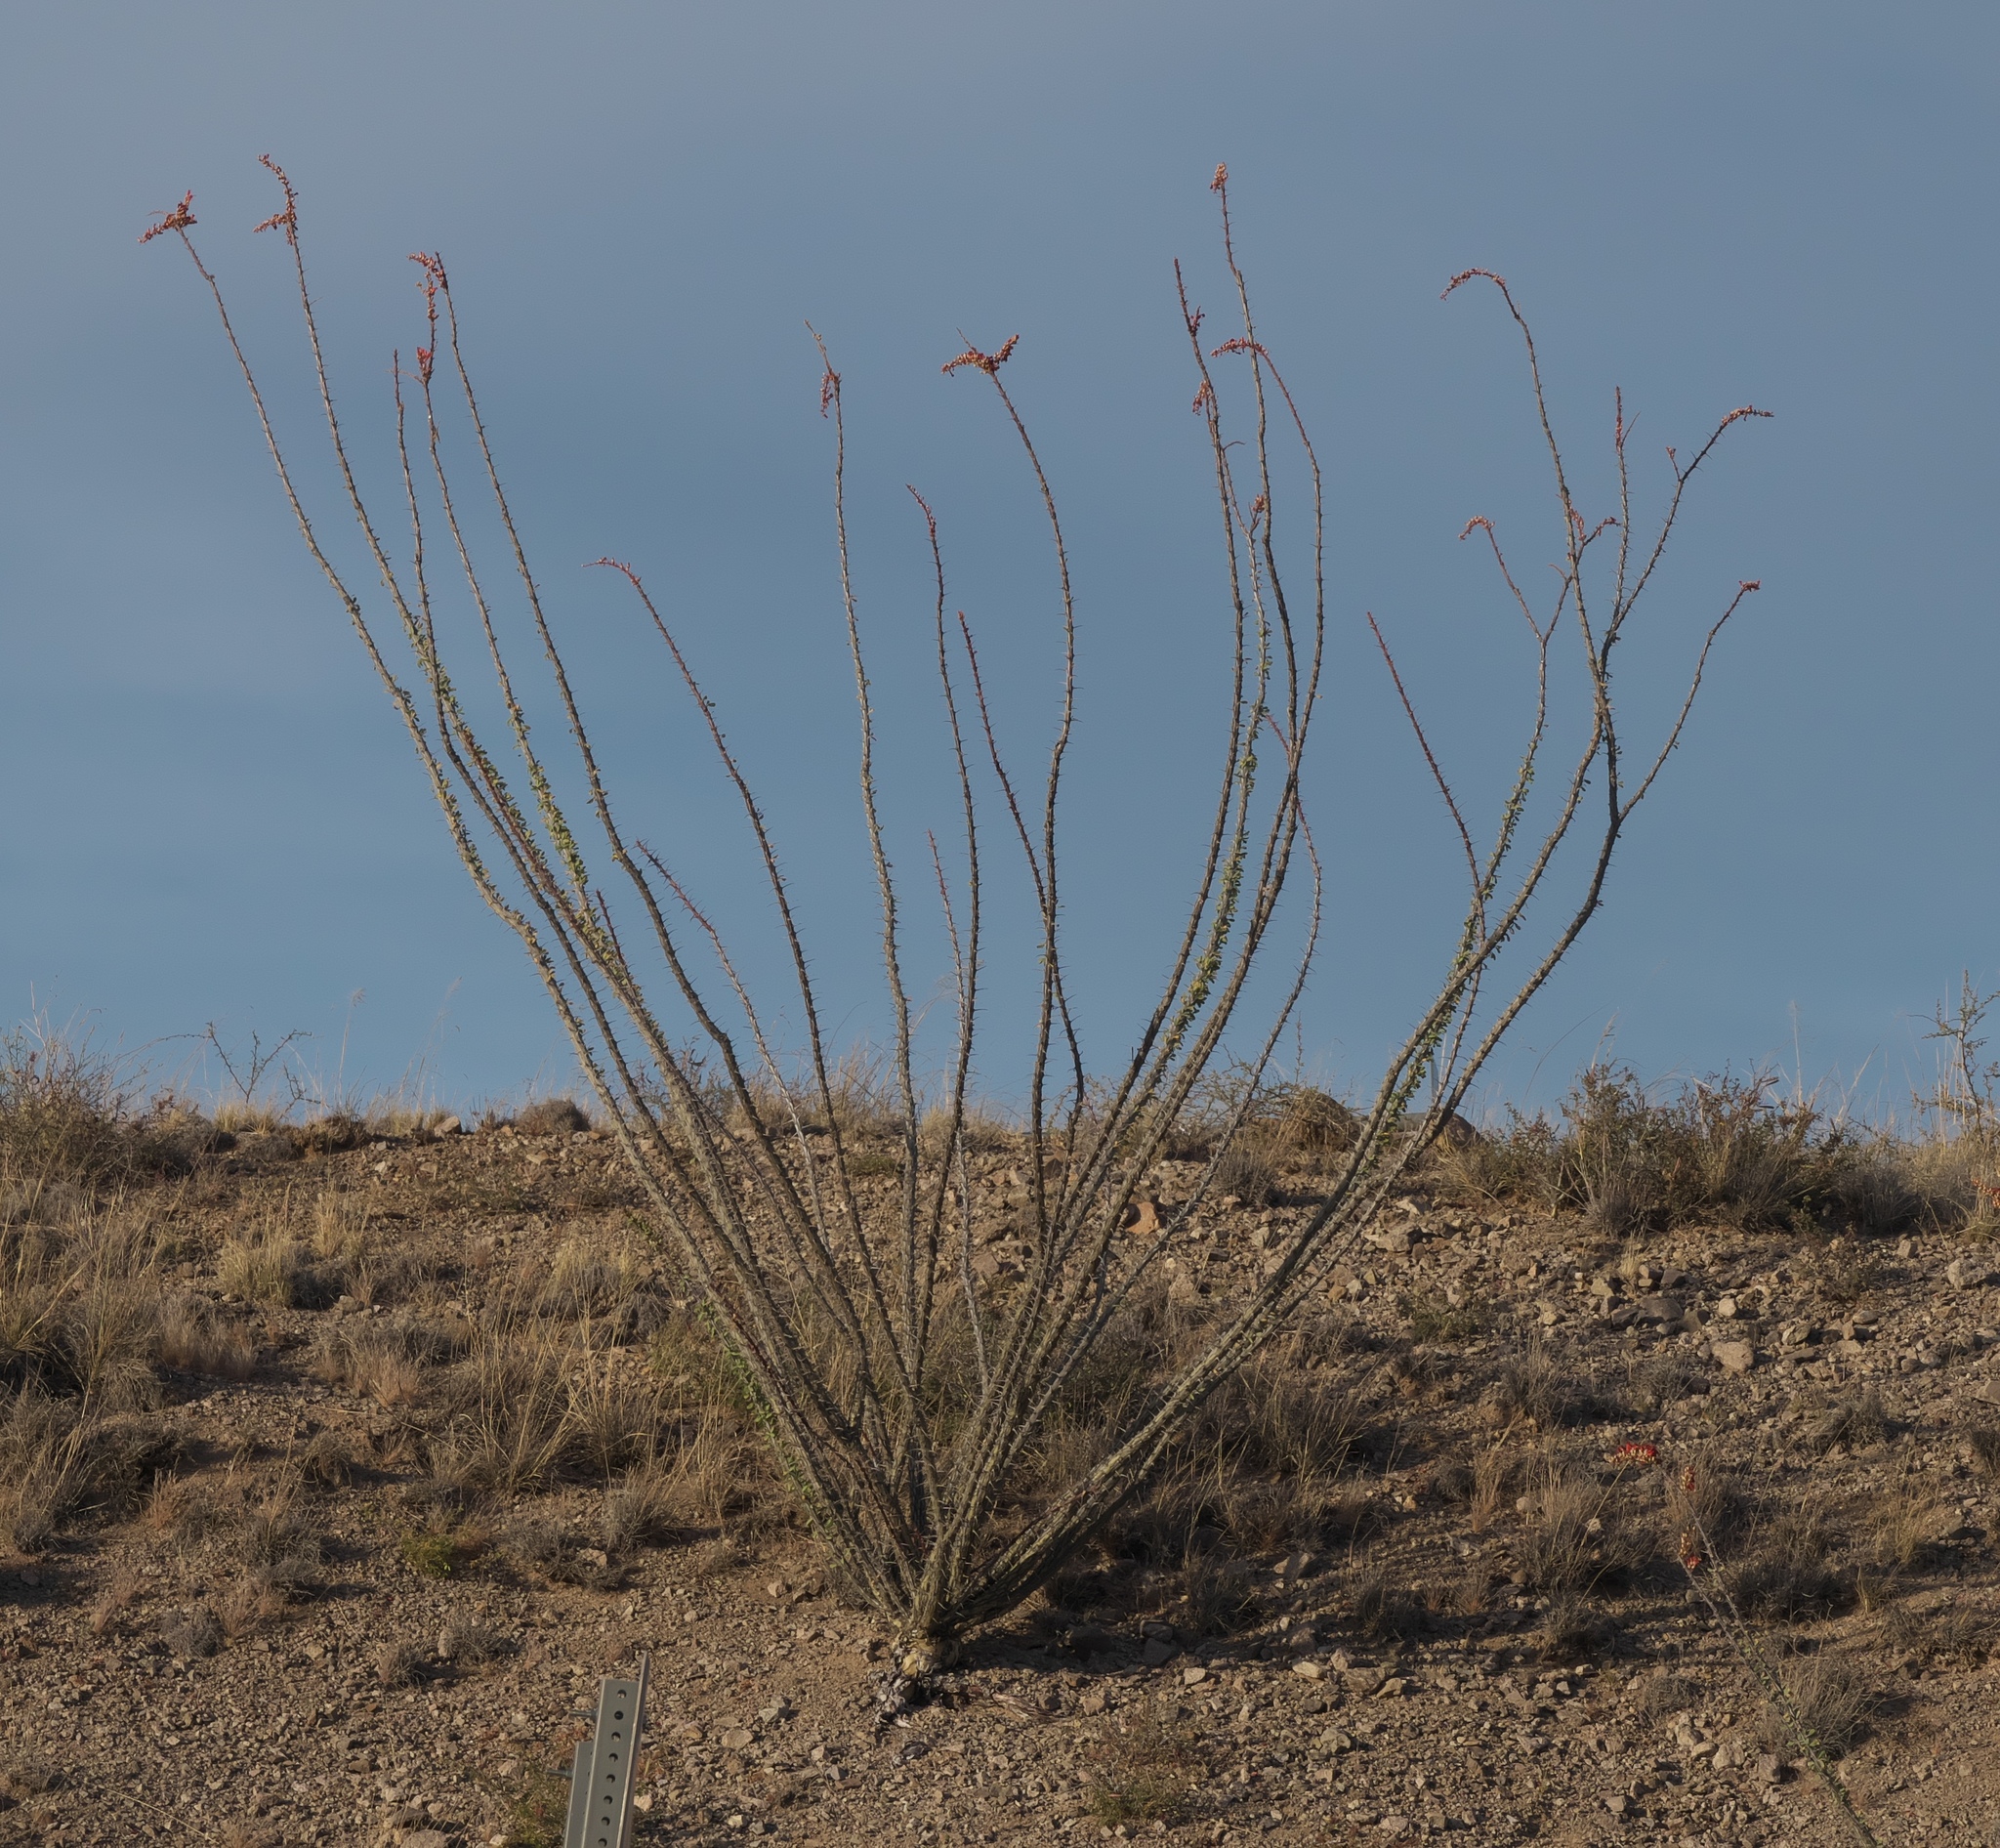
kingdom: Plantae
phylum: Tracheophyta
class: Magnoliopsida
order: Ericales
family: Fouquieriaceae
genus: Fouquieria
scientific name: Fouquieria splendens
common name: Vine-cactus
